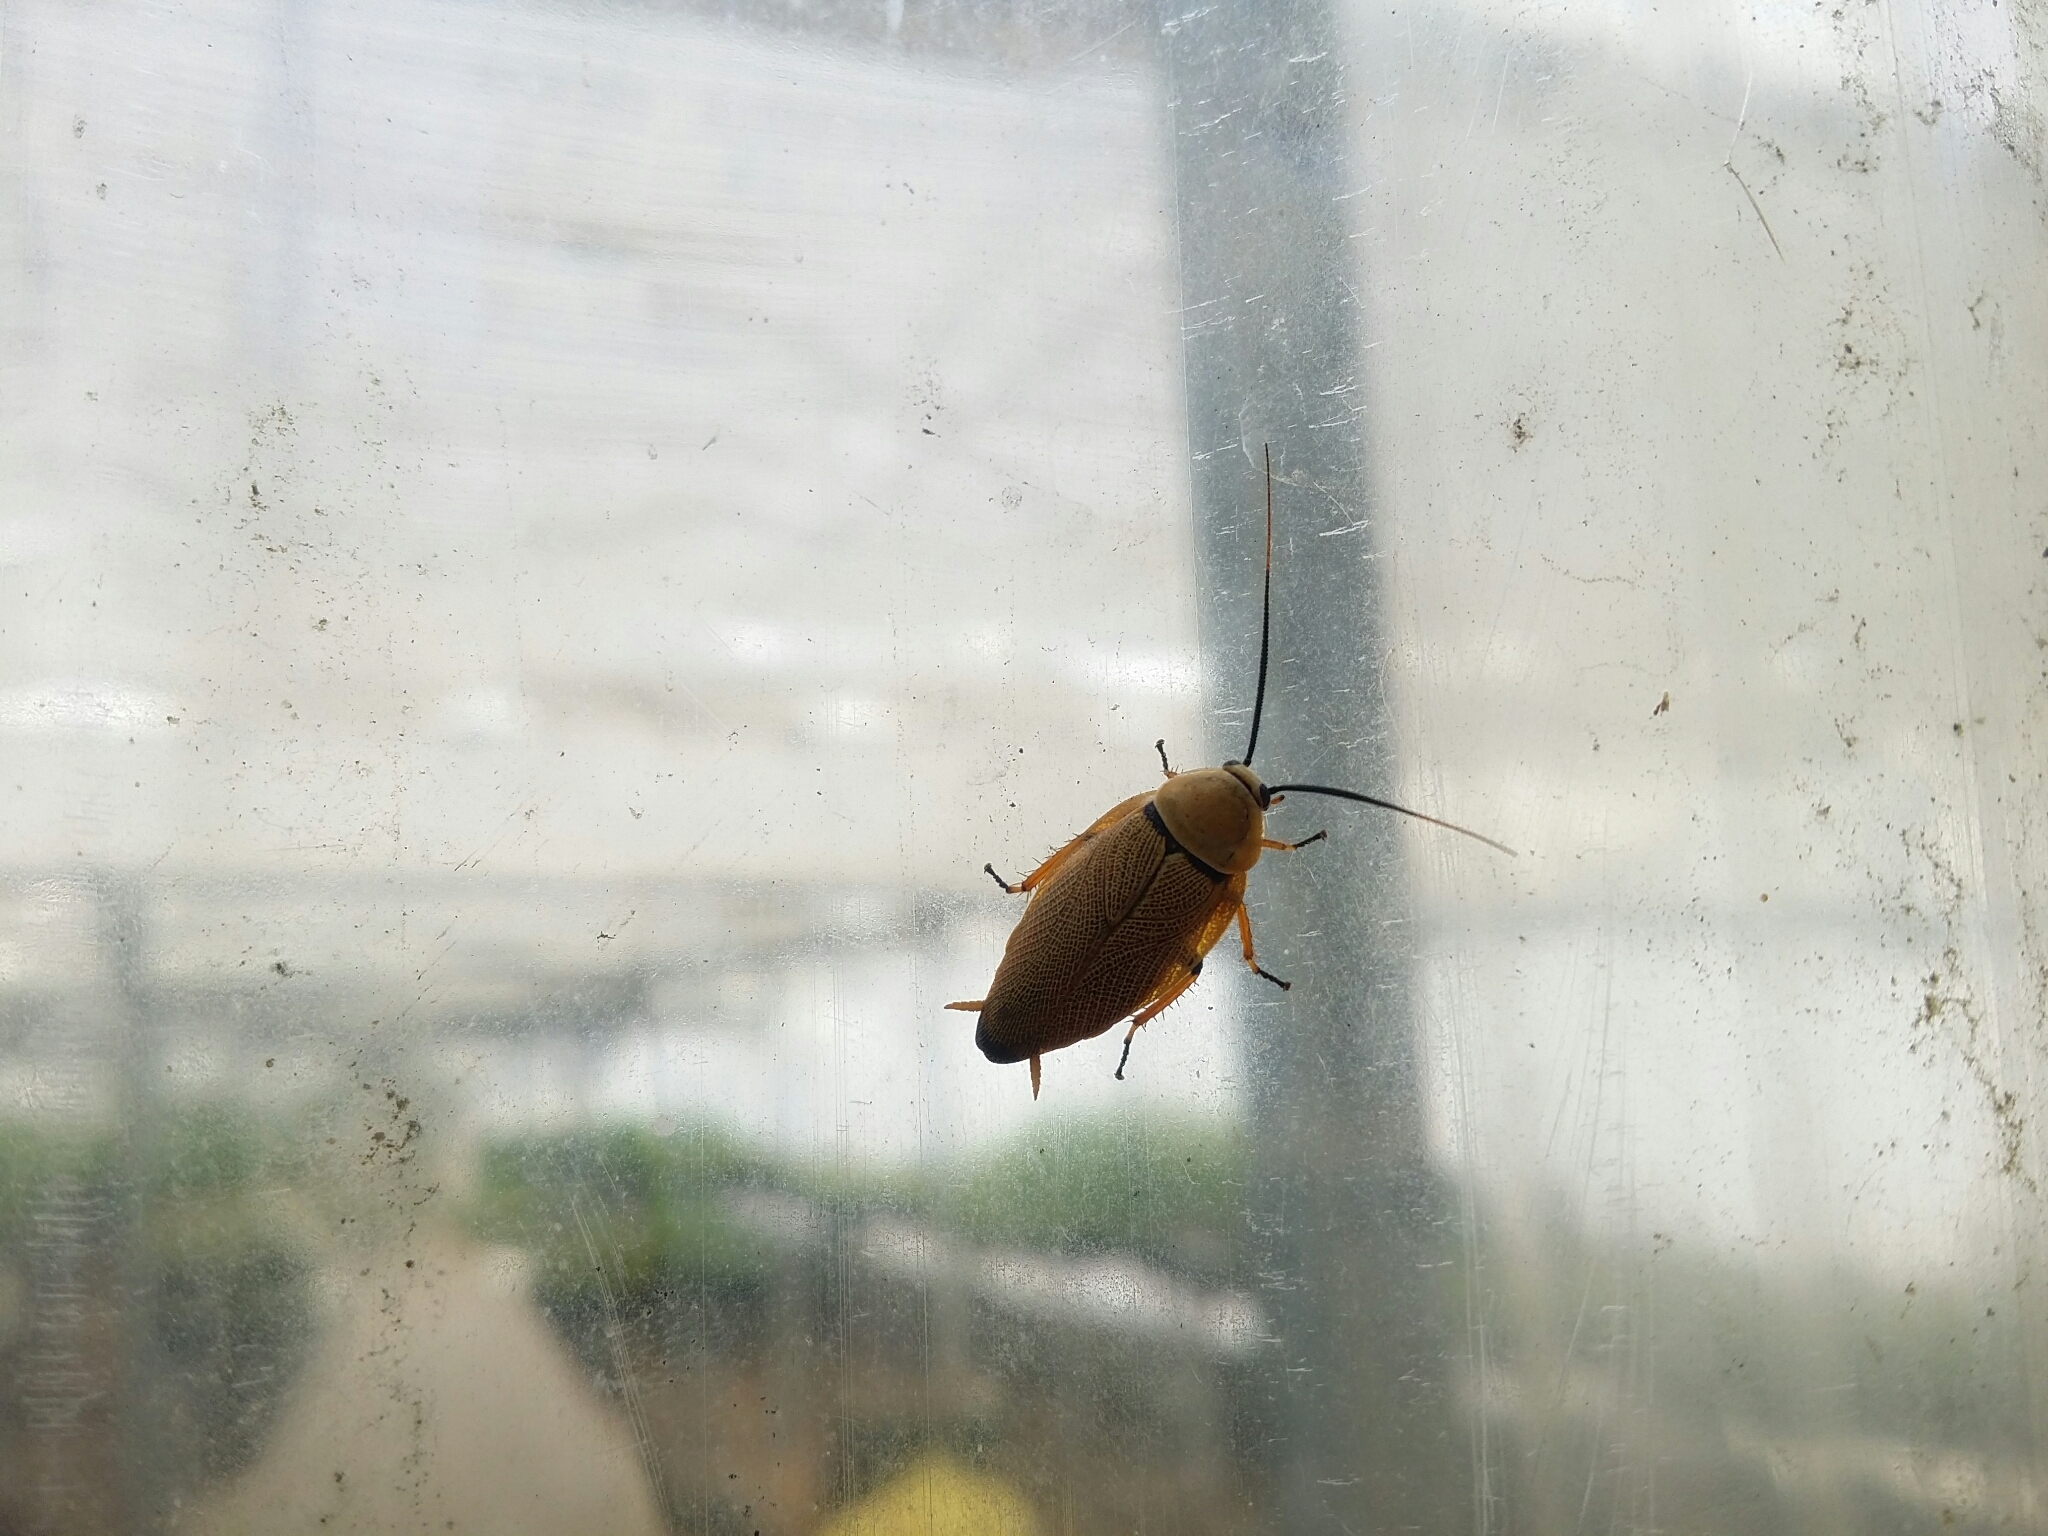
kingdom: Animalia
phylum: Arthropoda
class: Insecta
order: Blattodea
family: Ectobiidae
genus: Ellipsidion
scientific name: Ellipsidion humerale
